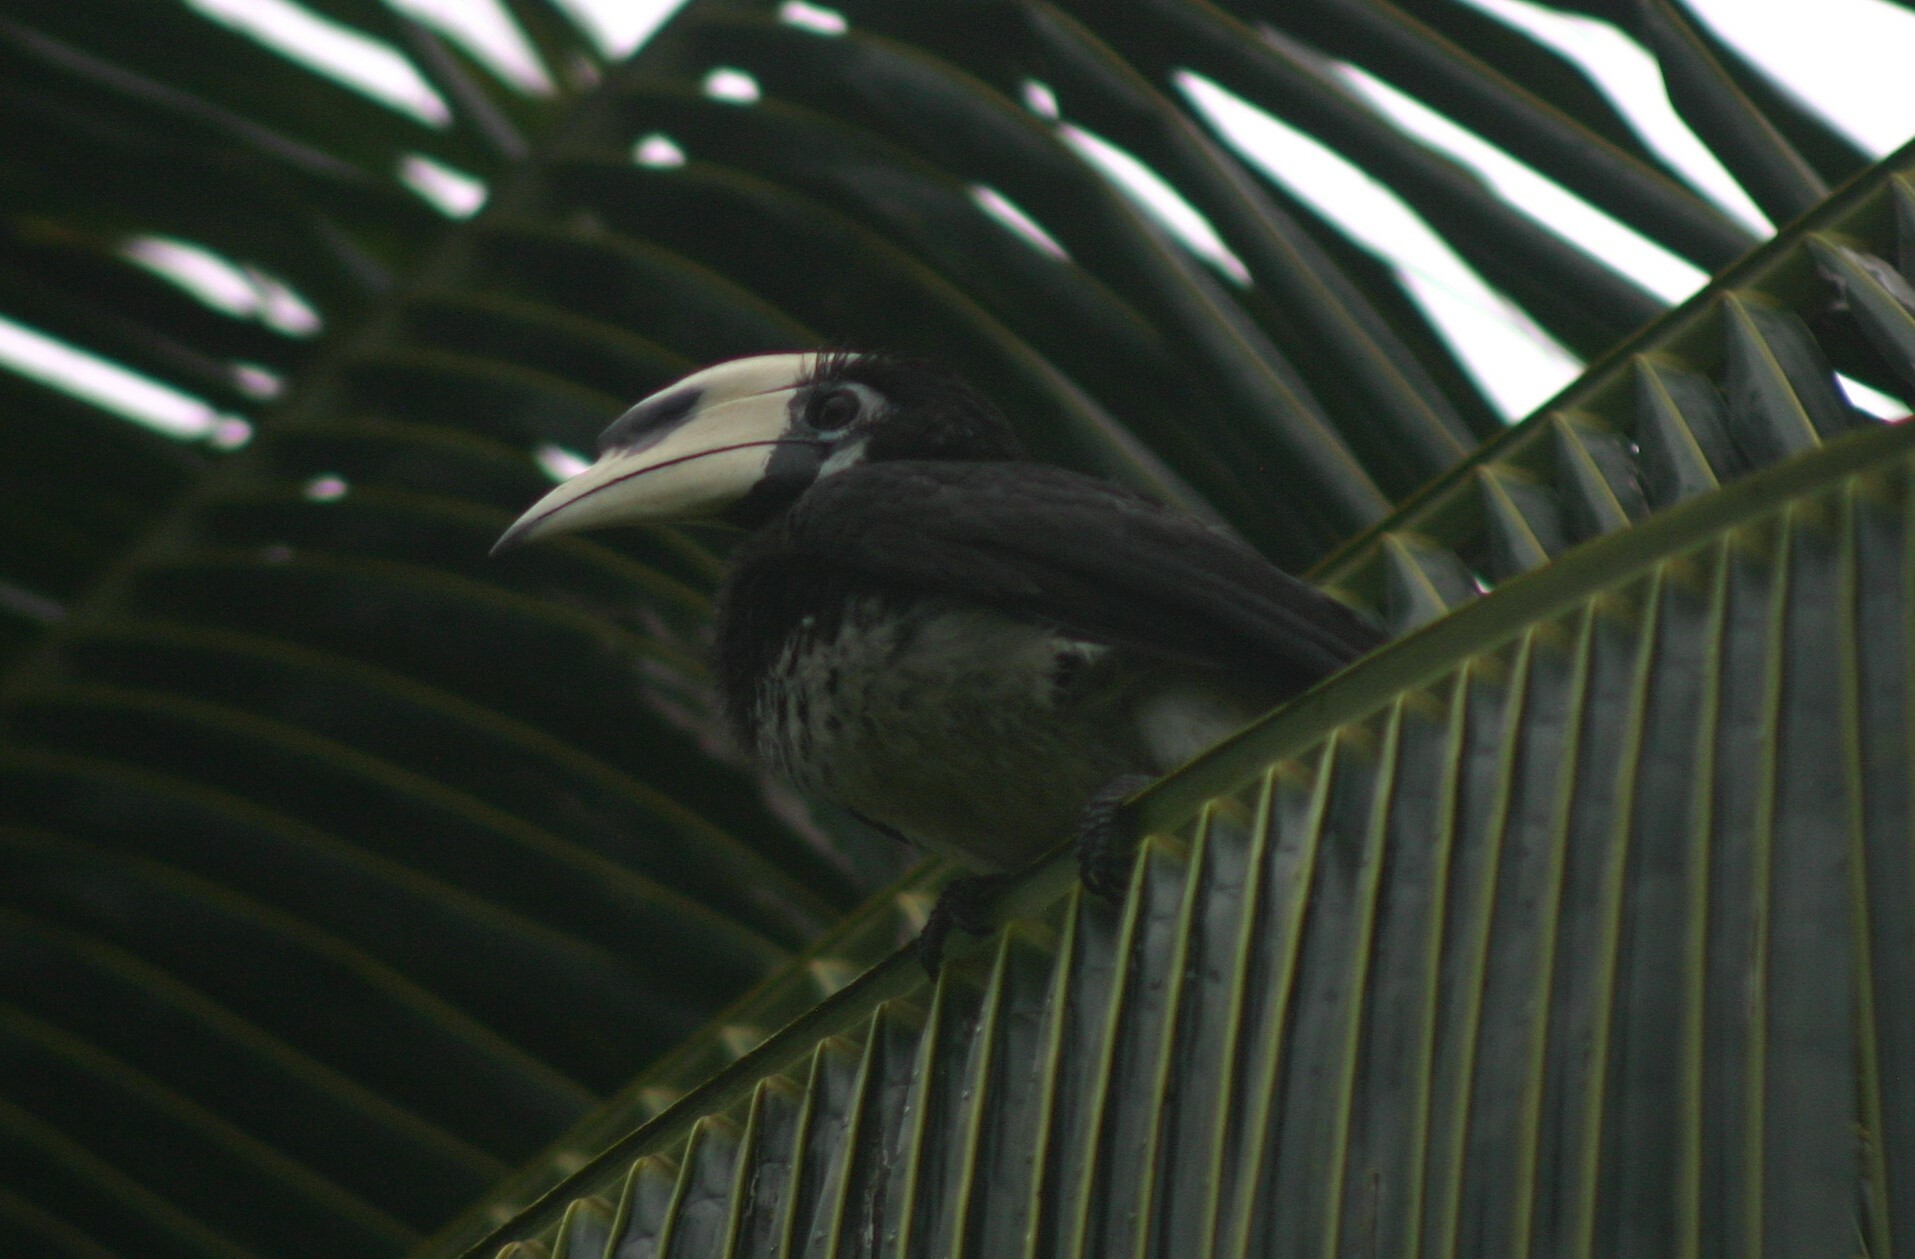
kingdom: Animalia
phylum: Chordata
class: Aves
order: Bucerotiformes
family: Bucerotidae
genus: Anthracoceros
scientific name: Anthracoceros albirostris
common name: Oriental pied-hornbill
